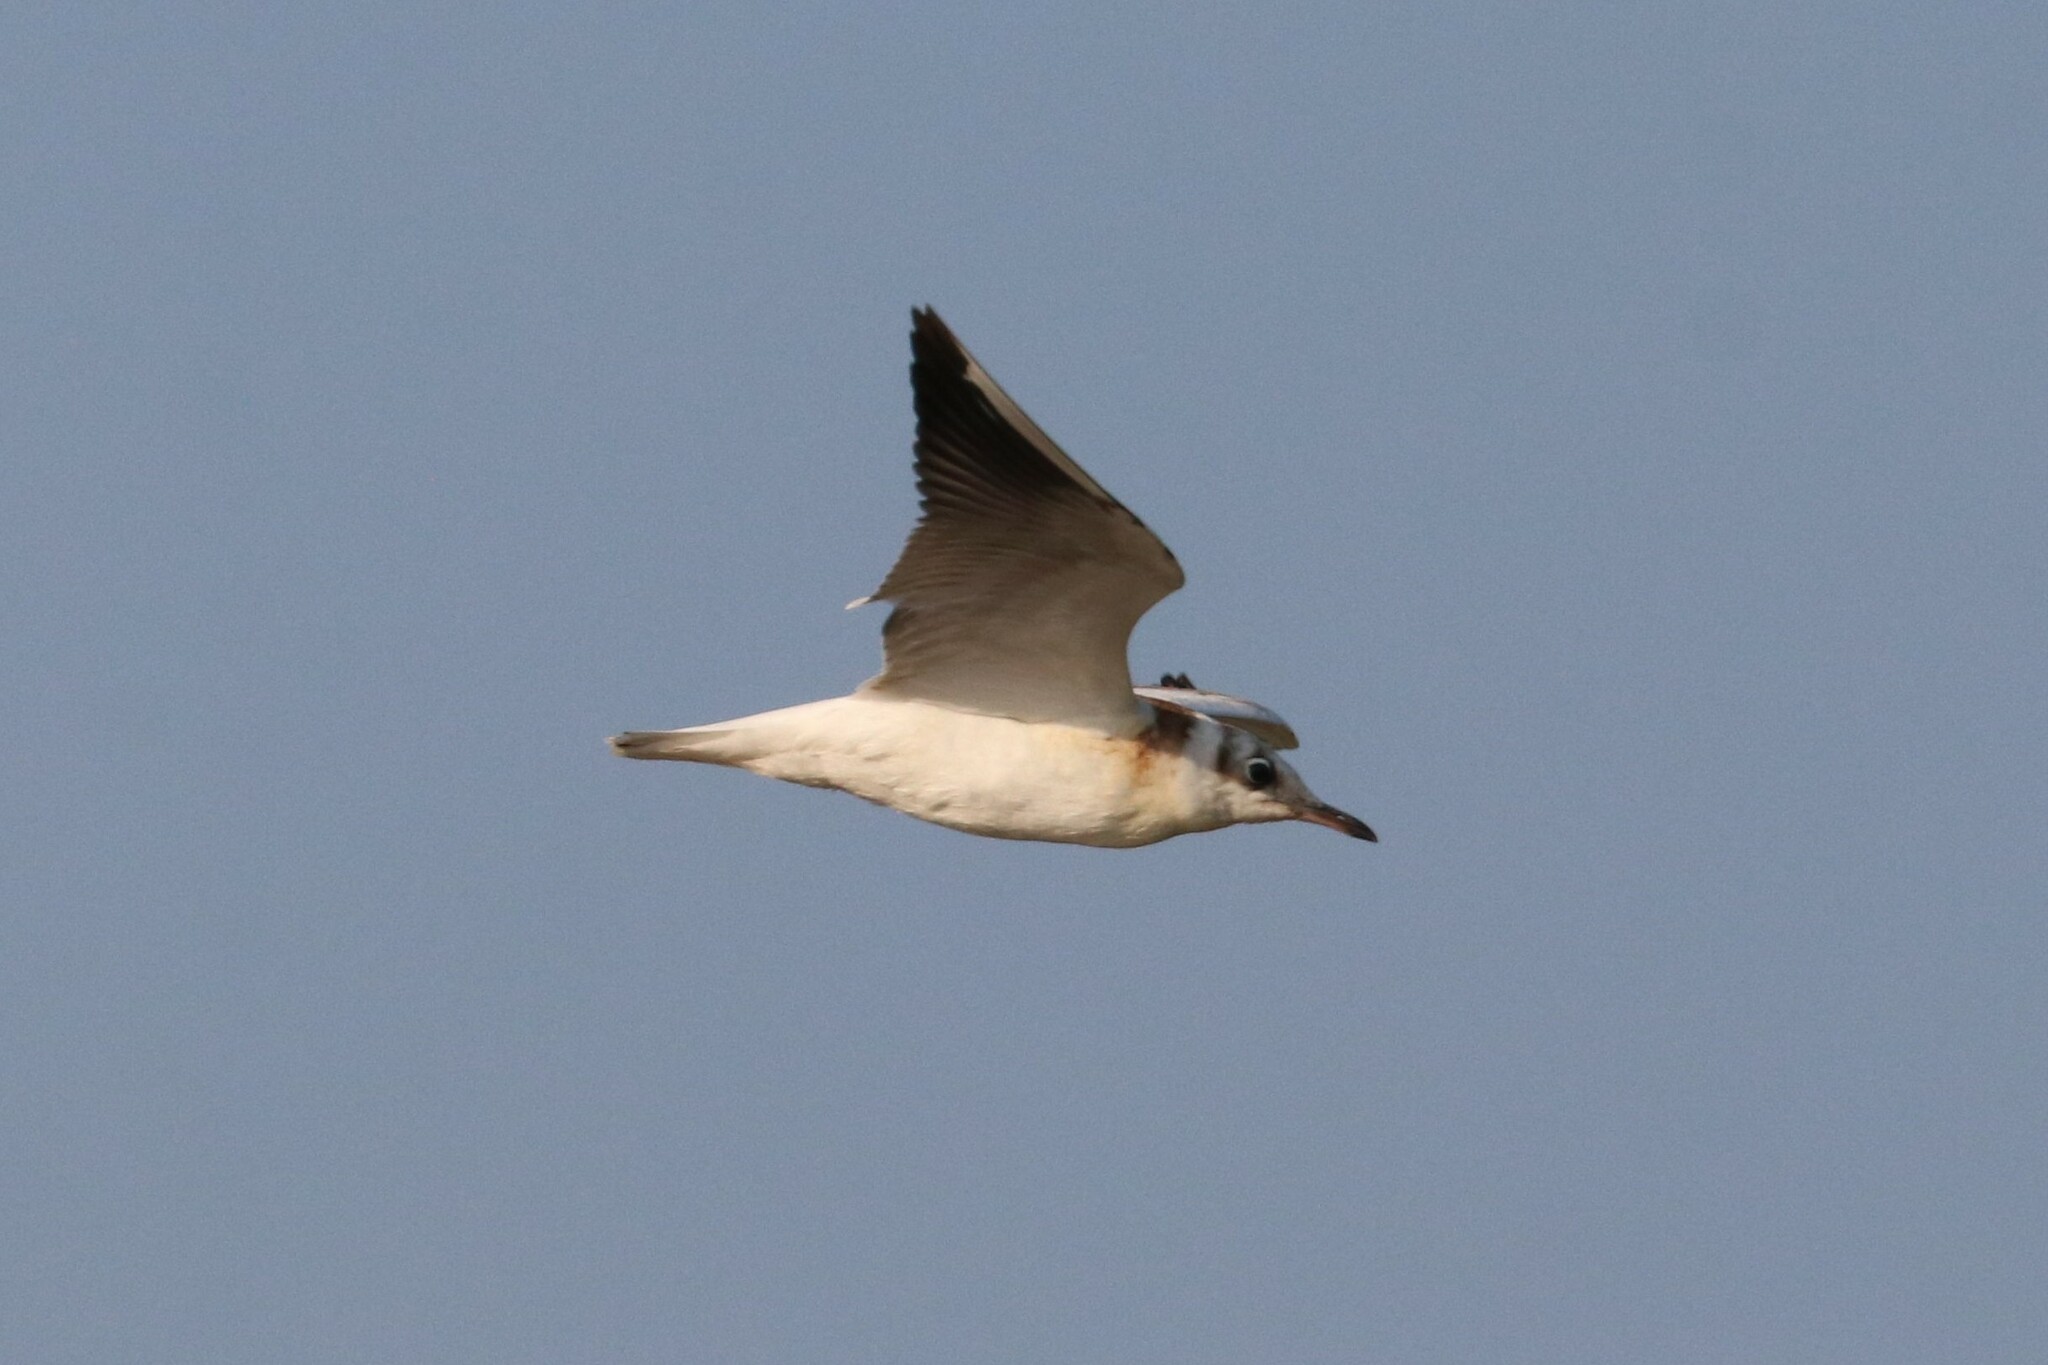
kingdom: Animalia
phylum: Chordata
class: Aves
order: Charadriiformes
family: Laridae
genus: Chroicocephalus
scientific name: Chroicocephalus ridibundus
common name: Black-headed gull
